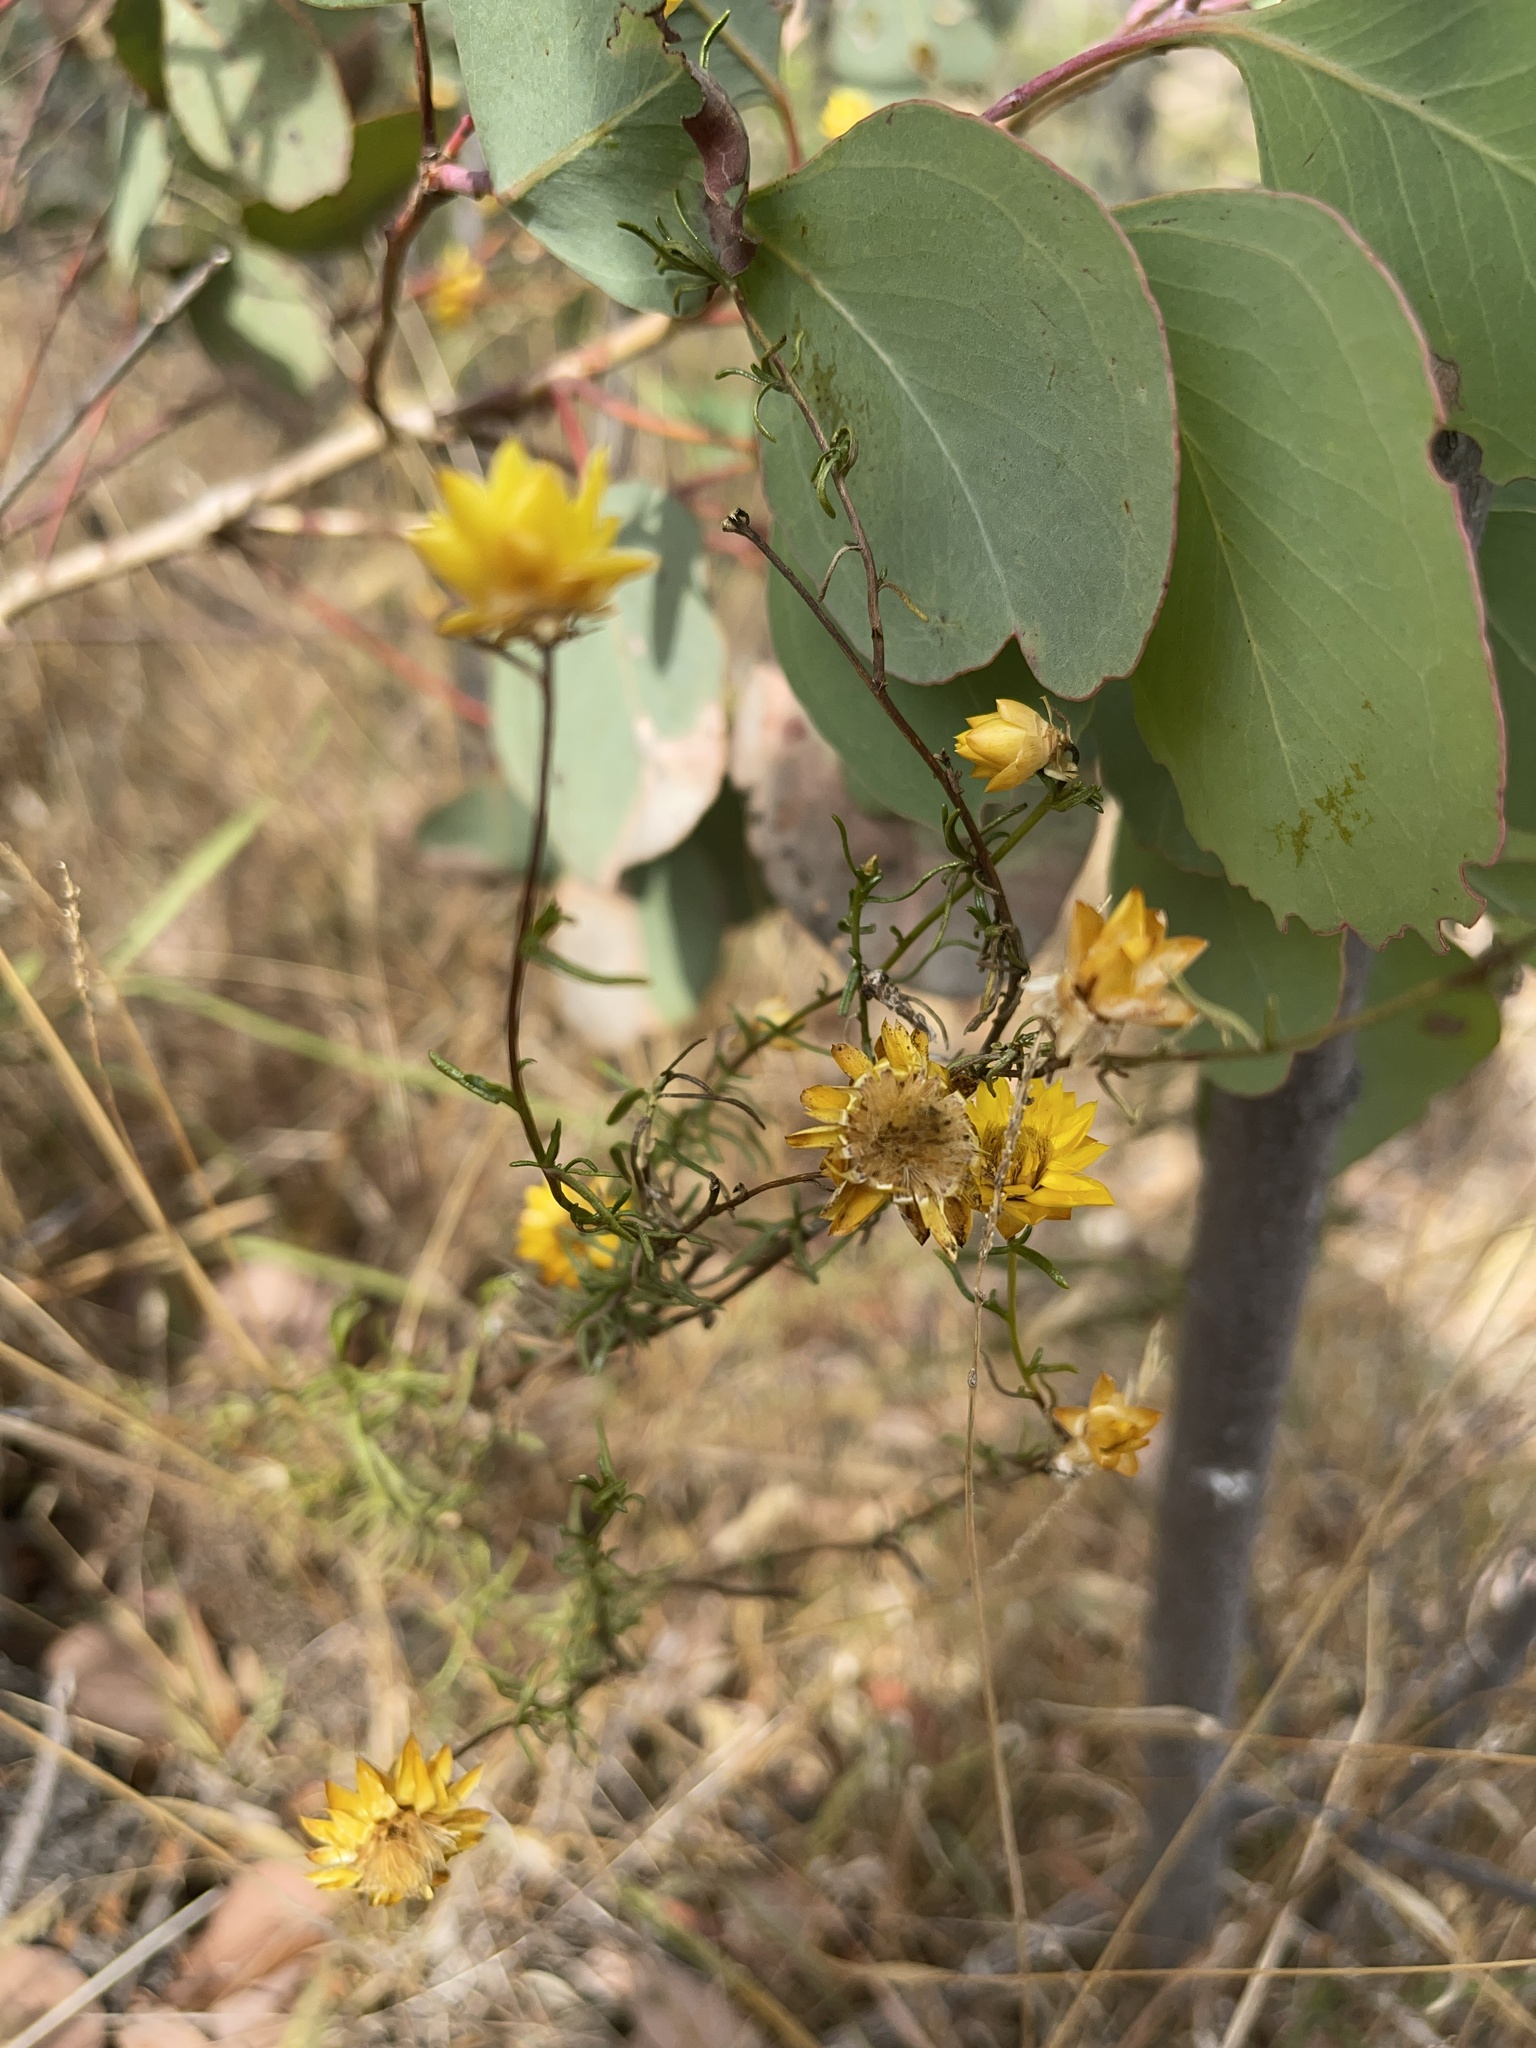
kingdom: Plantae
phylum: Tracheophyta
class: Magnoliopsida
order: Asterales
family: Asteraceae
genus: Xerochrysum
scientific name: Xerochrysum viscosum
